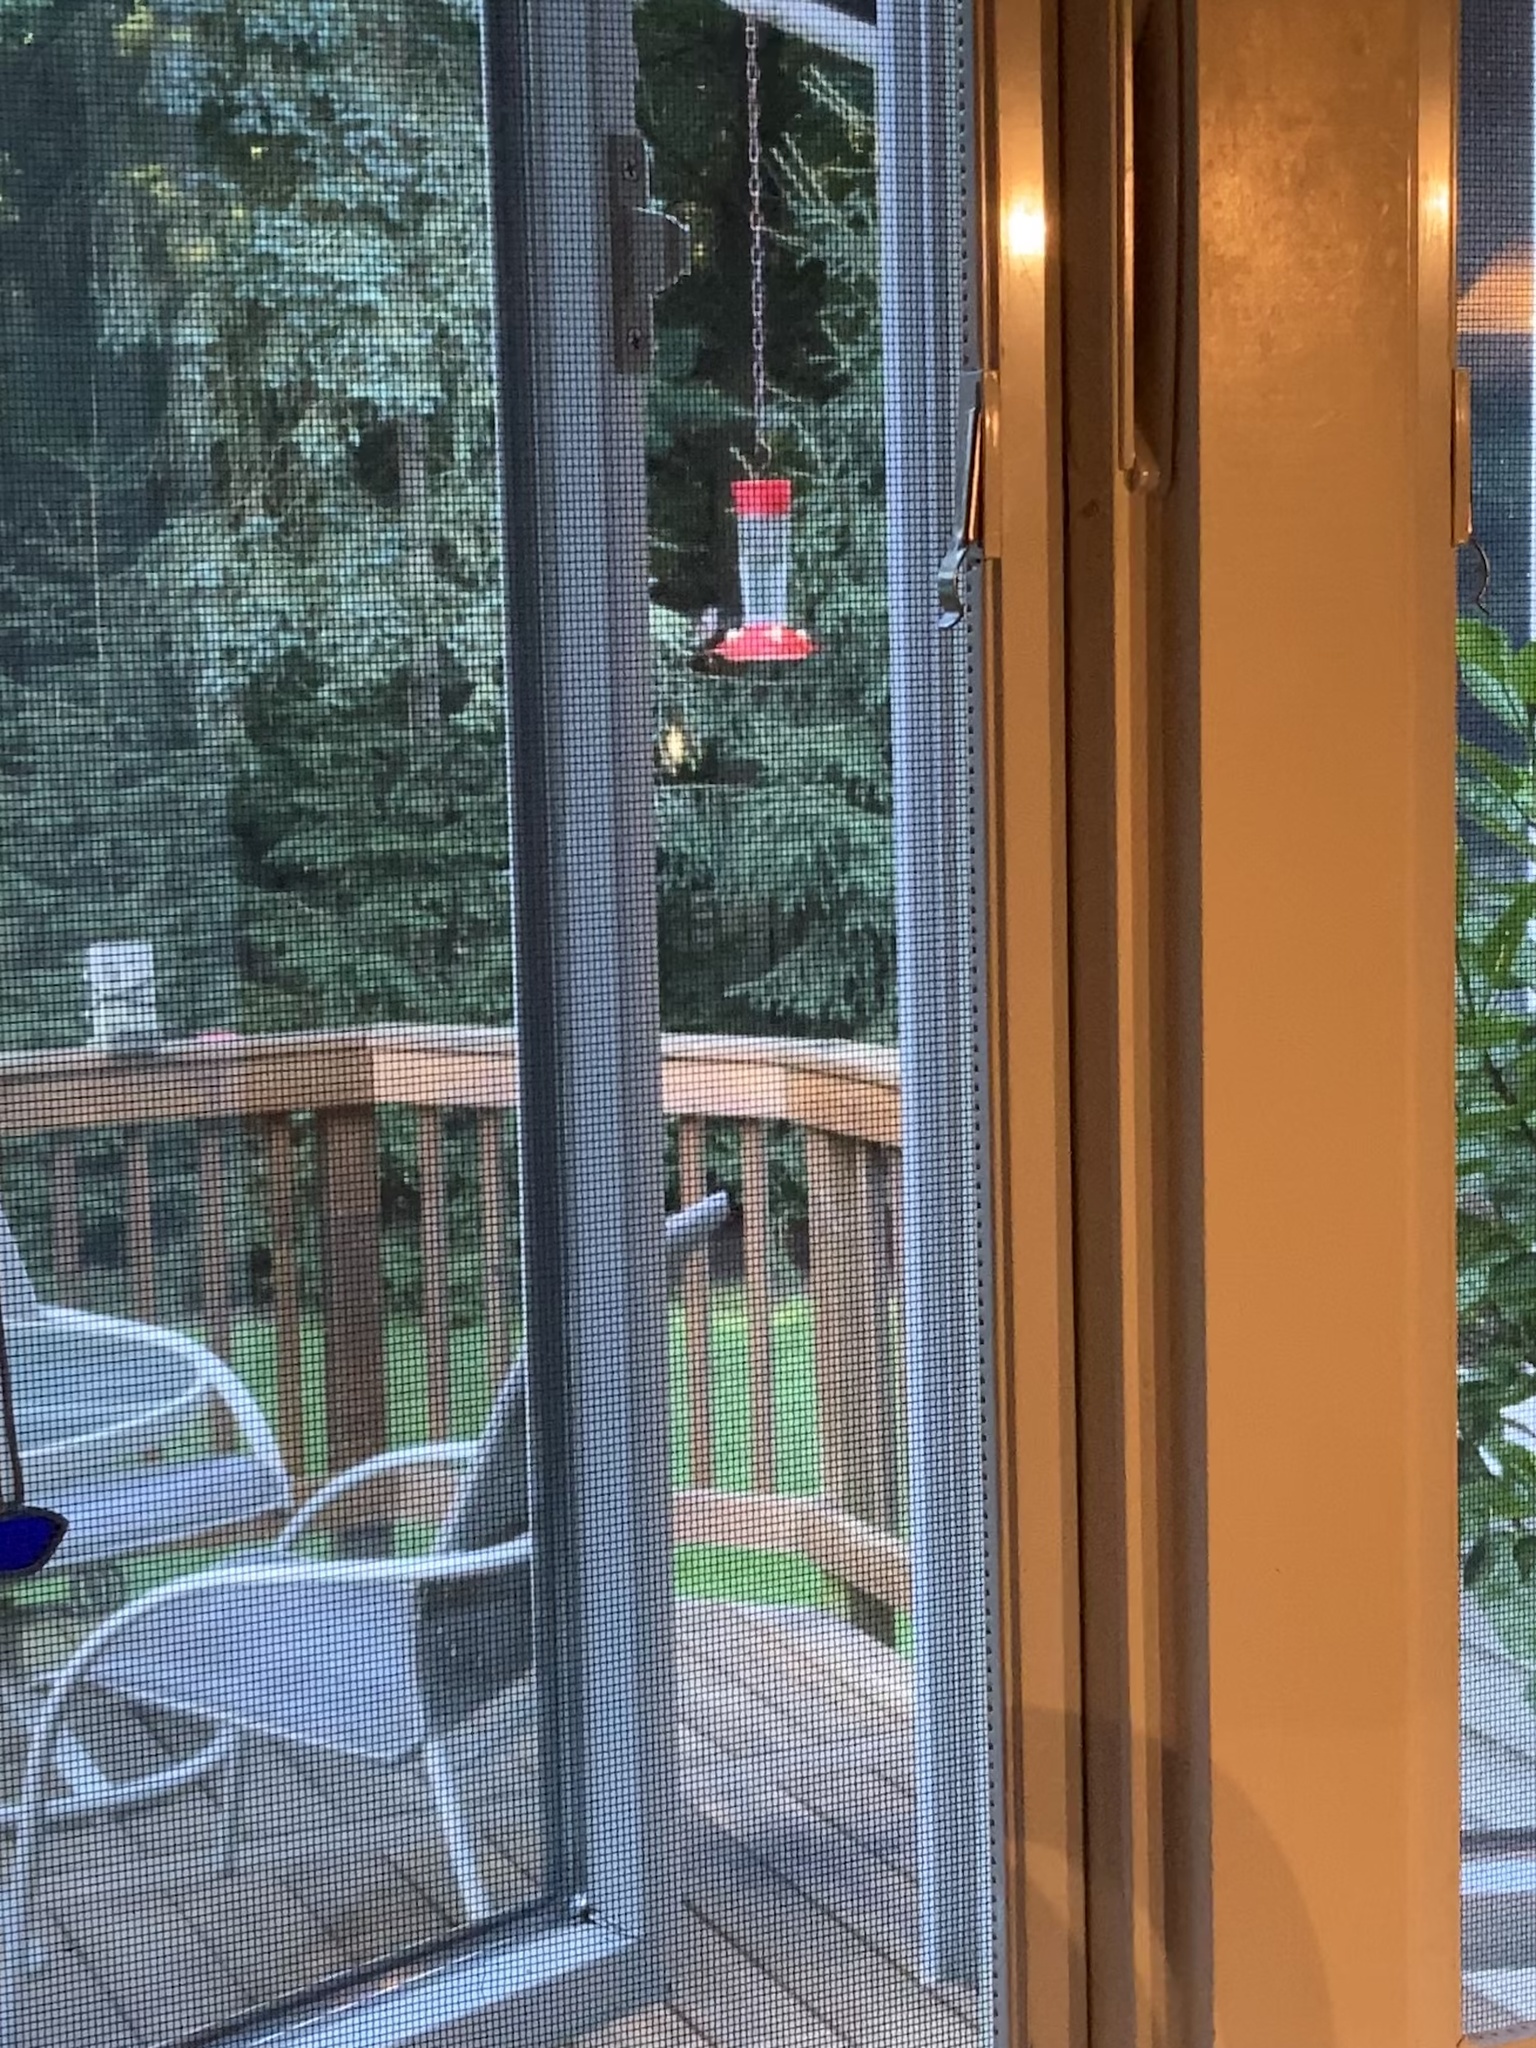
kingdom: Animalia
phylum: Chordata
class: Aves
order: Apodiformes
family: Trochilidae
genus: Archilochus
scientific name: Archilochus colubris
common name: Ruby-throated hummingbird
